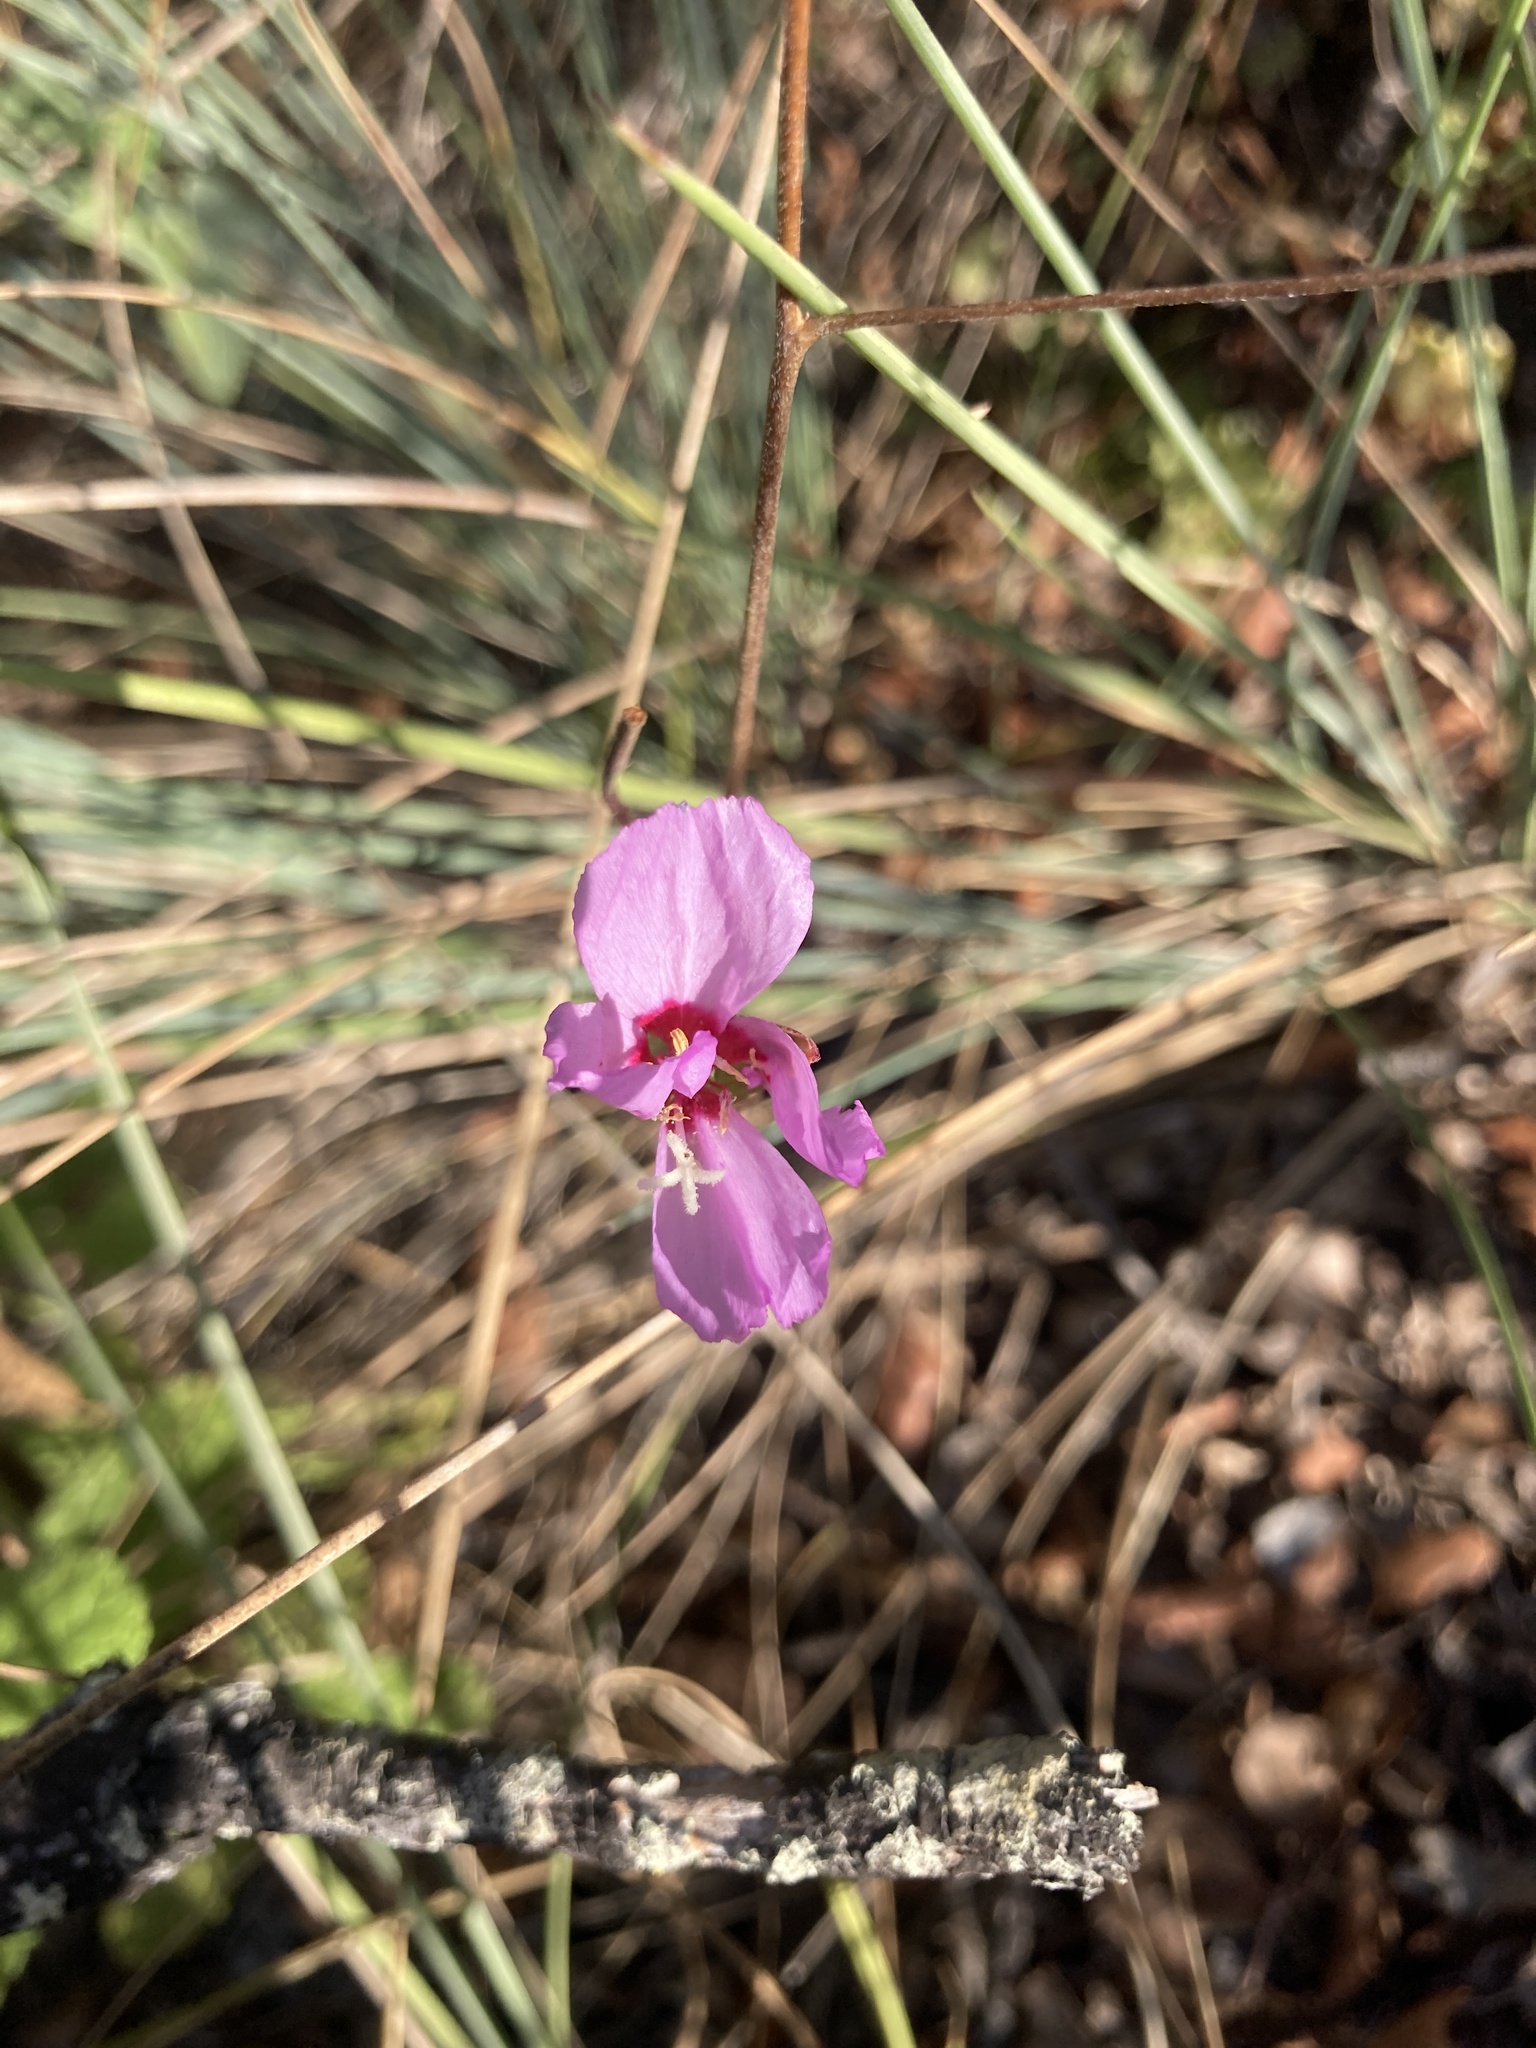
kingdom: Plantae
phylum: Tracheophyta
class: Magnoliopsida
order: Myrtales
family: Onagraceae
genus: Clarkia
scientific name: Clarkia rubicunda
